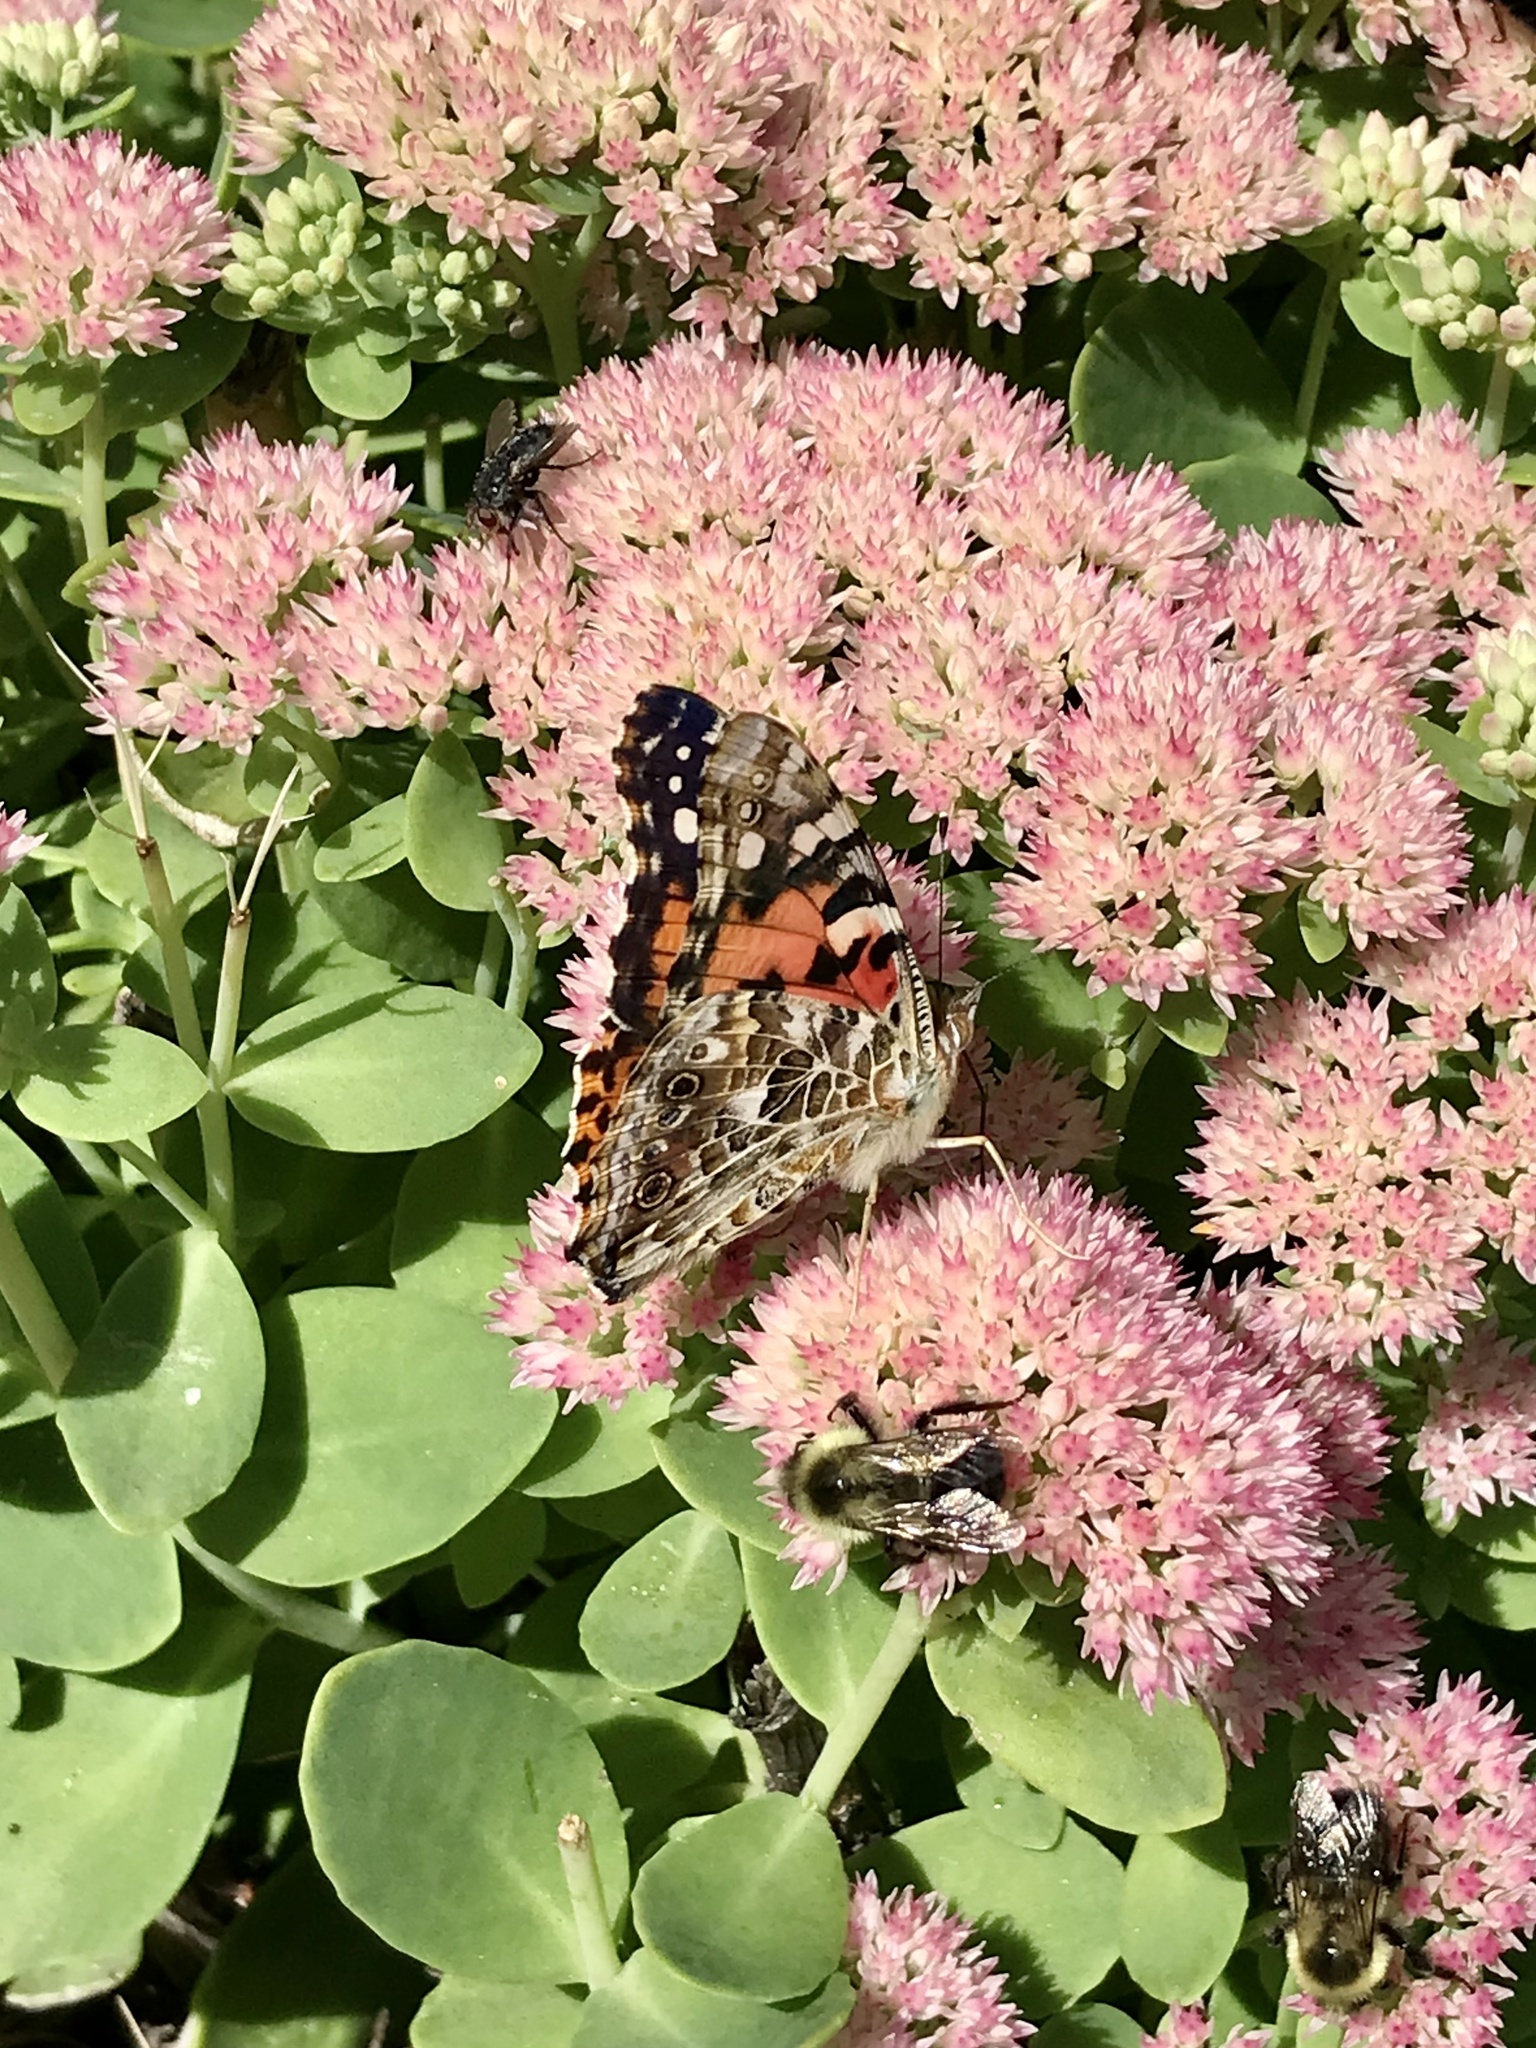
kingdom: Animalia
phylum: Arthropoda
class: Insecta
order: Lepidoptera
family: Nymphalidae
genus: Vanessa
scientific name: Vanessa cardui
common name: Painted lady
